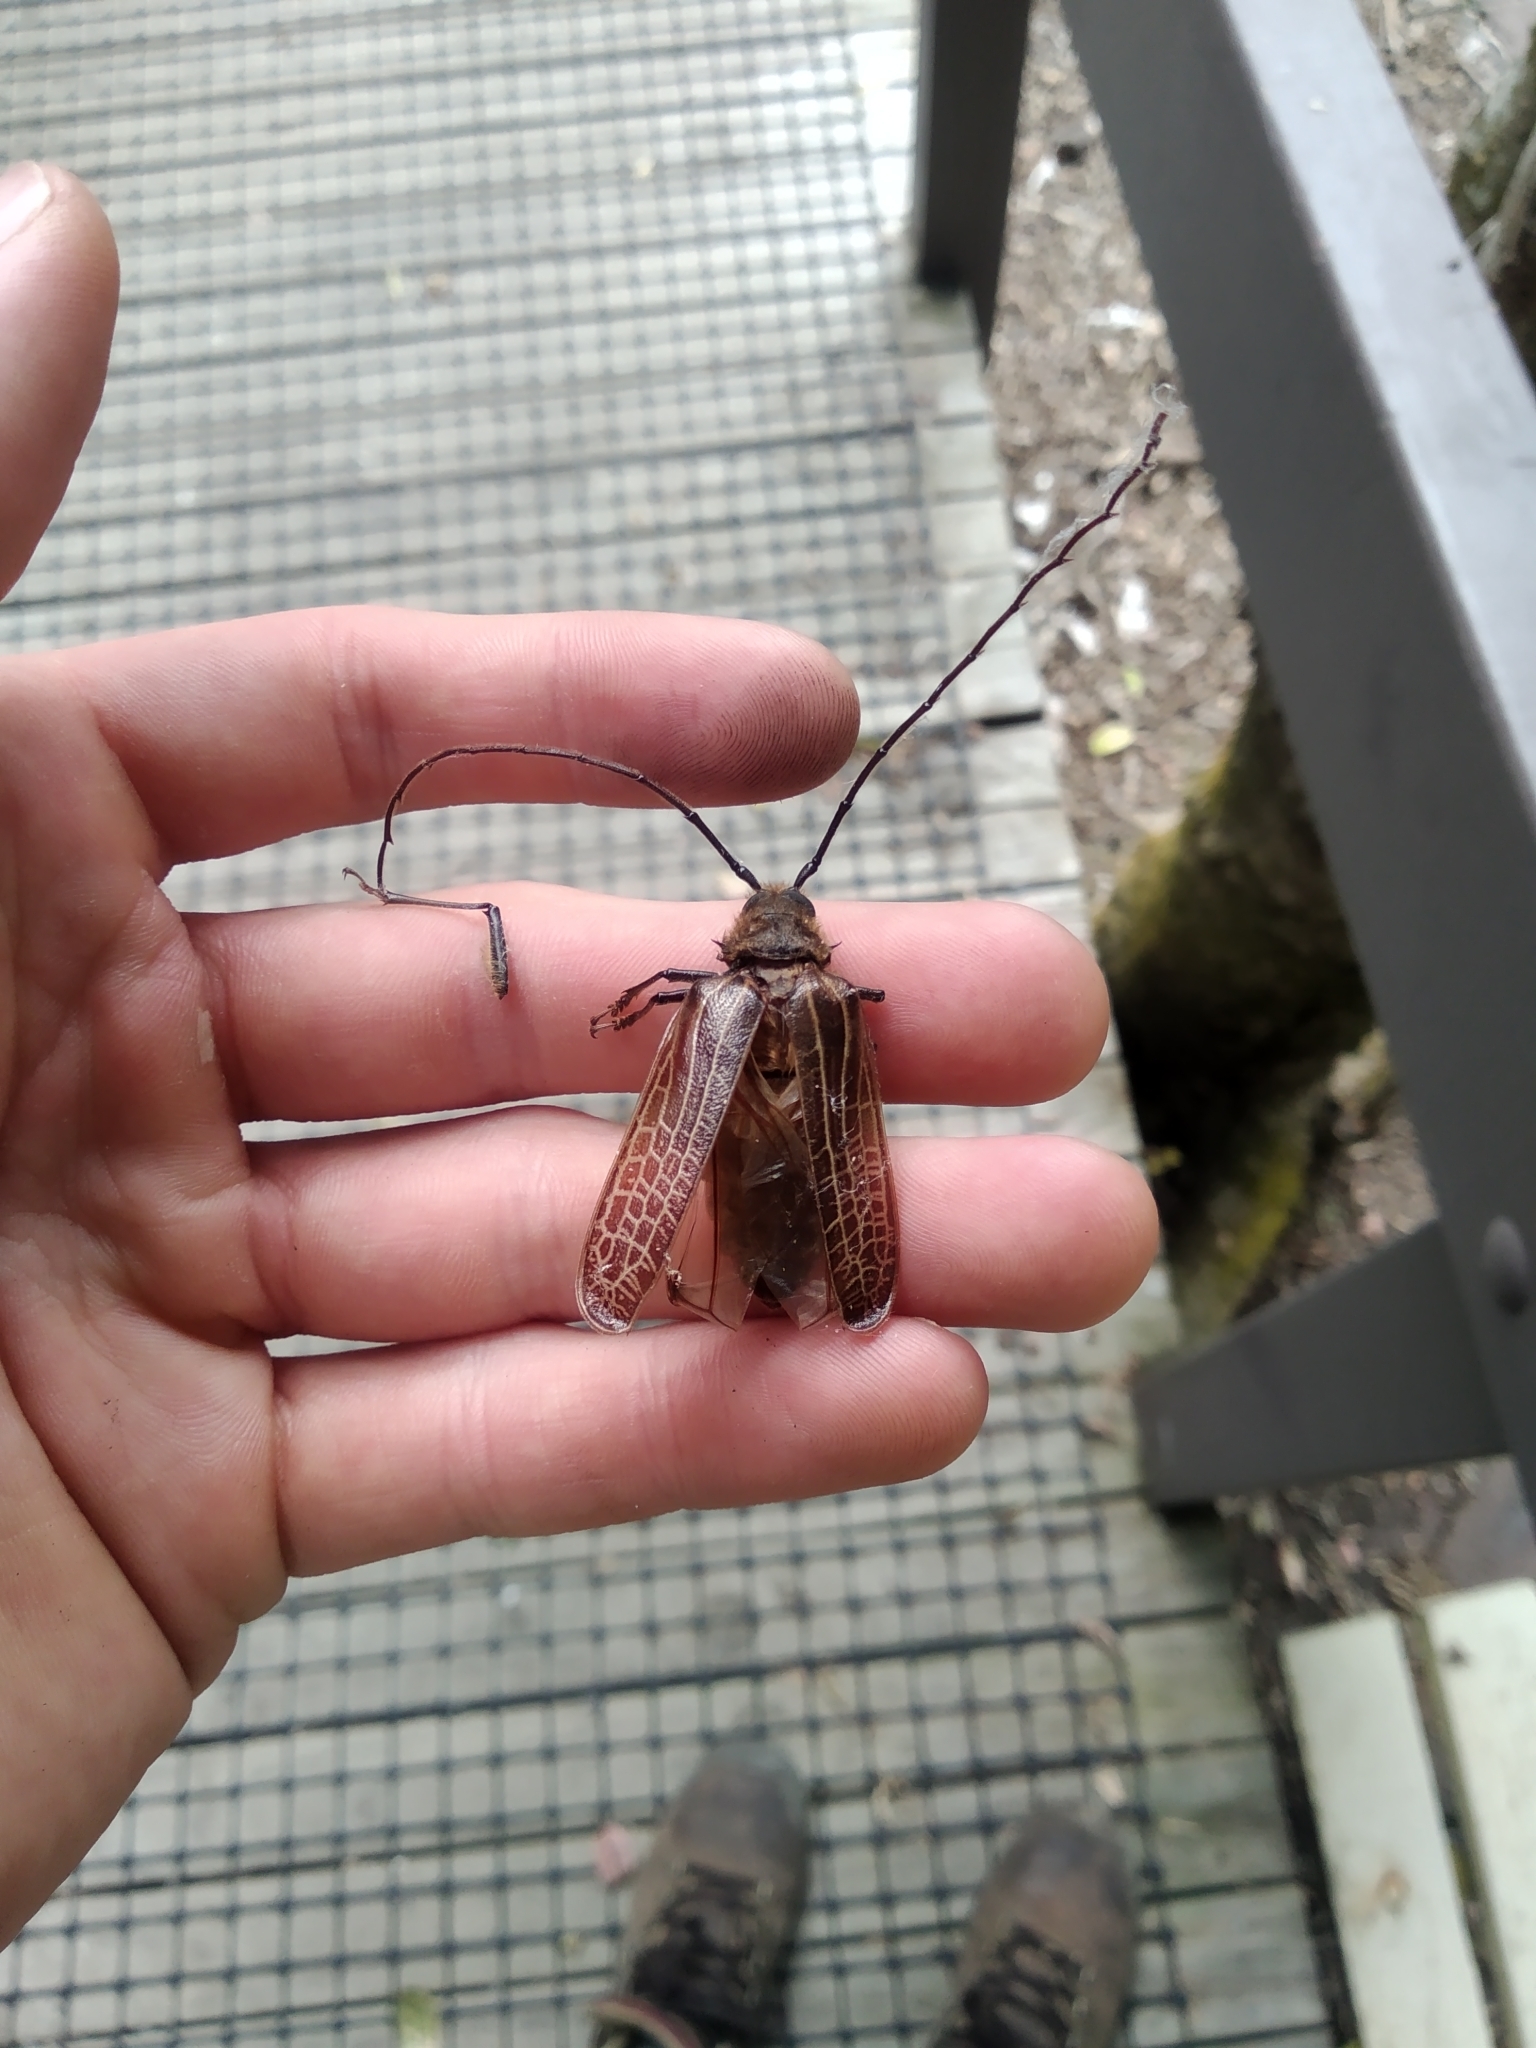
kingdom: Animalia
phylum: Arthropoda
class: Insecta
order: Coleoptera
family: Cerambycidae
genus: Prionoplus
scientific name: Prionoplus reticularis
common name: Huhu beetle
